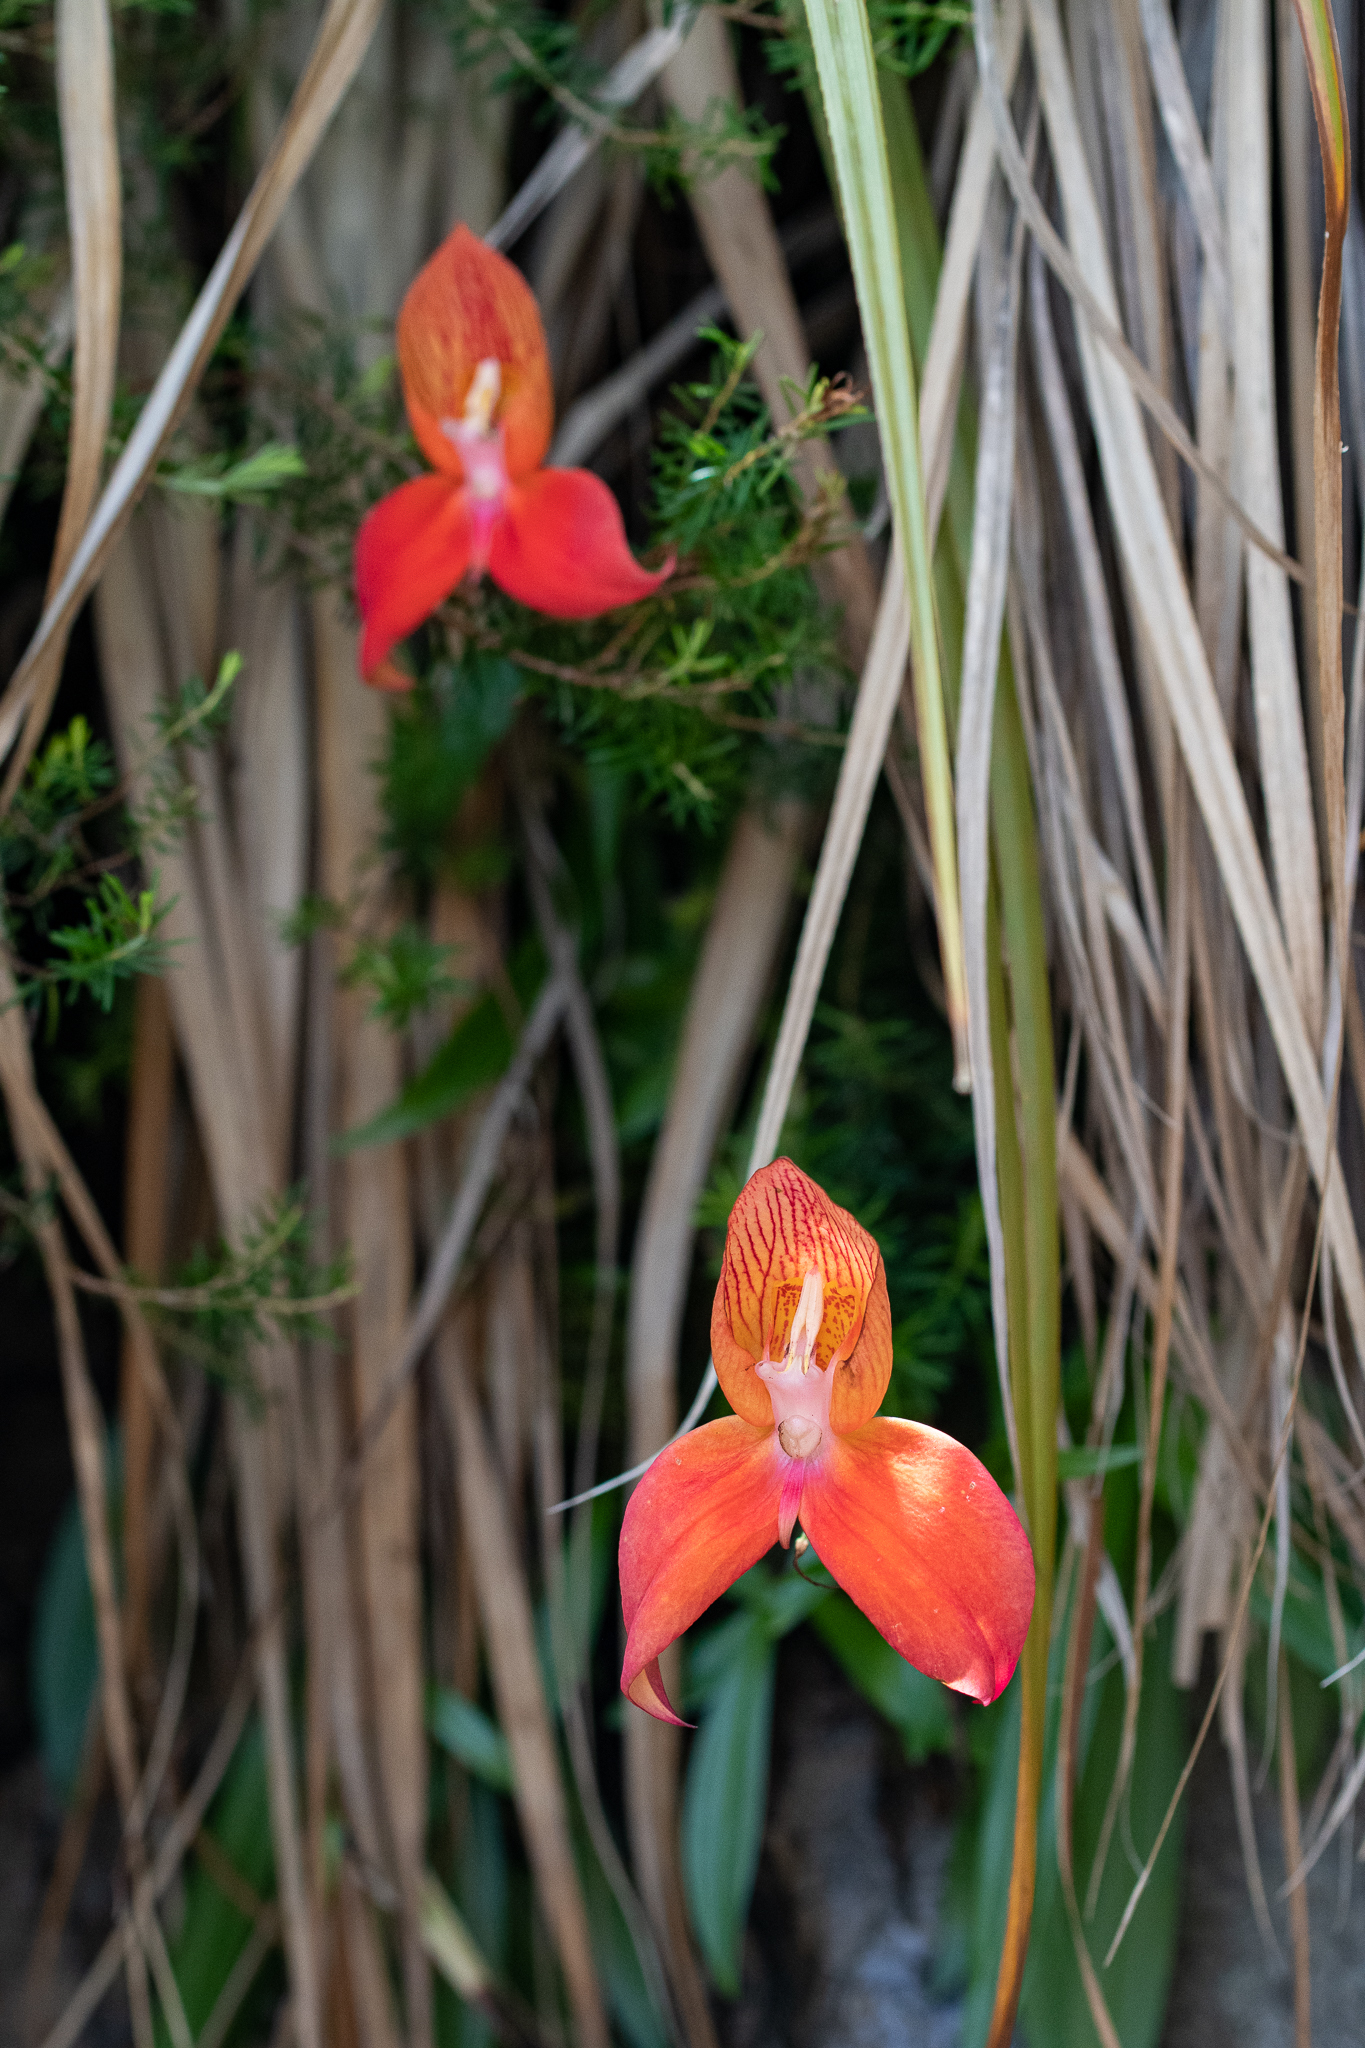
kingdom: Plantae
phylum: Tracheophyta
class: Liliopsida
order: Asparagales
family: Orchidaceae
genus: Disa
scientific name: Disa uniflora
